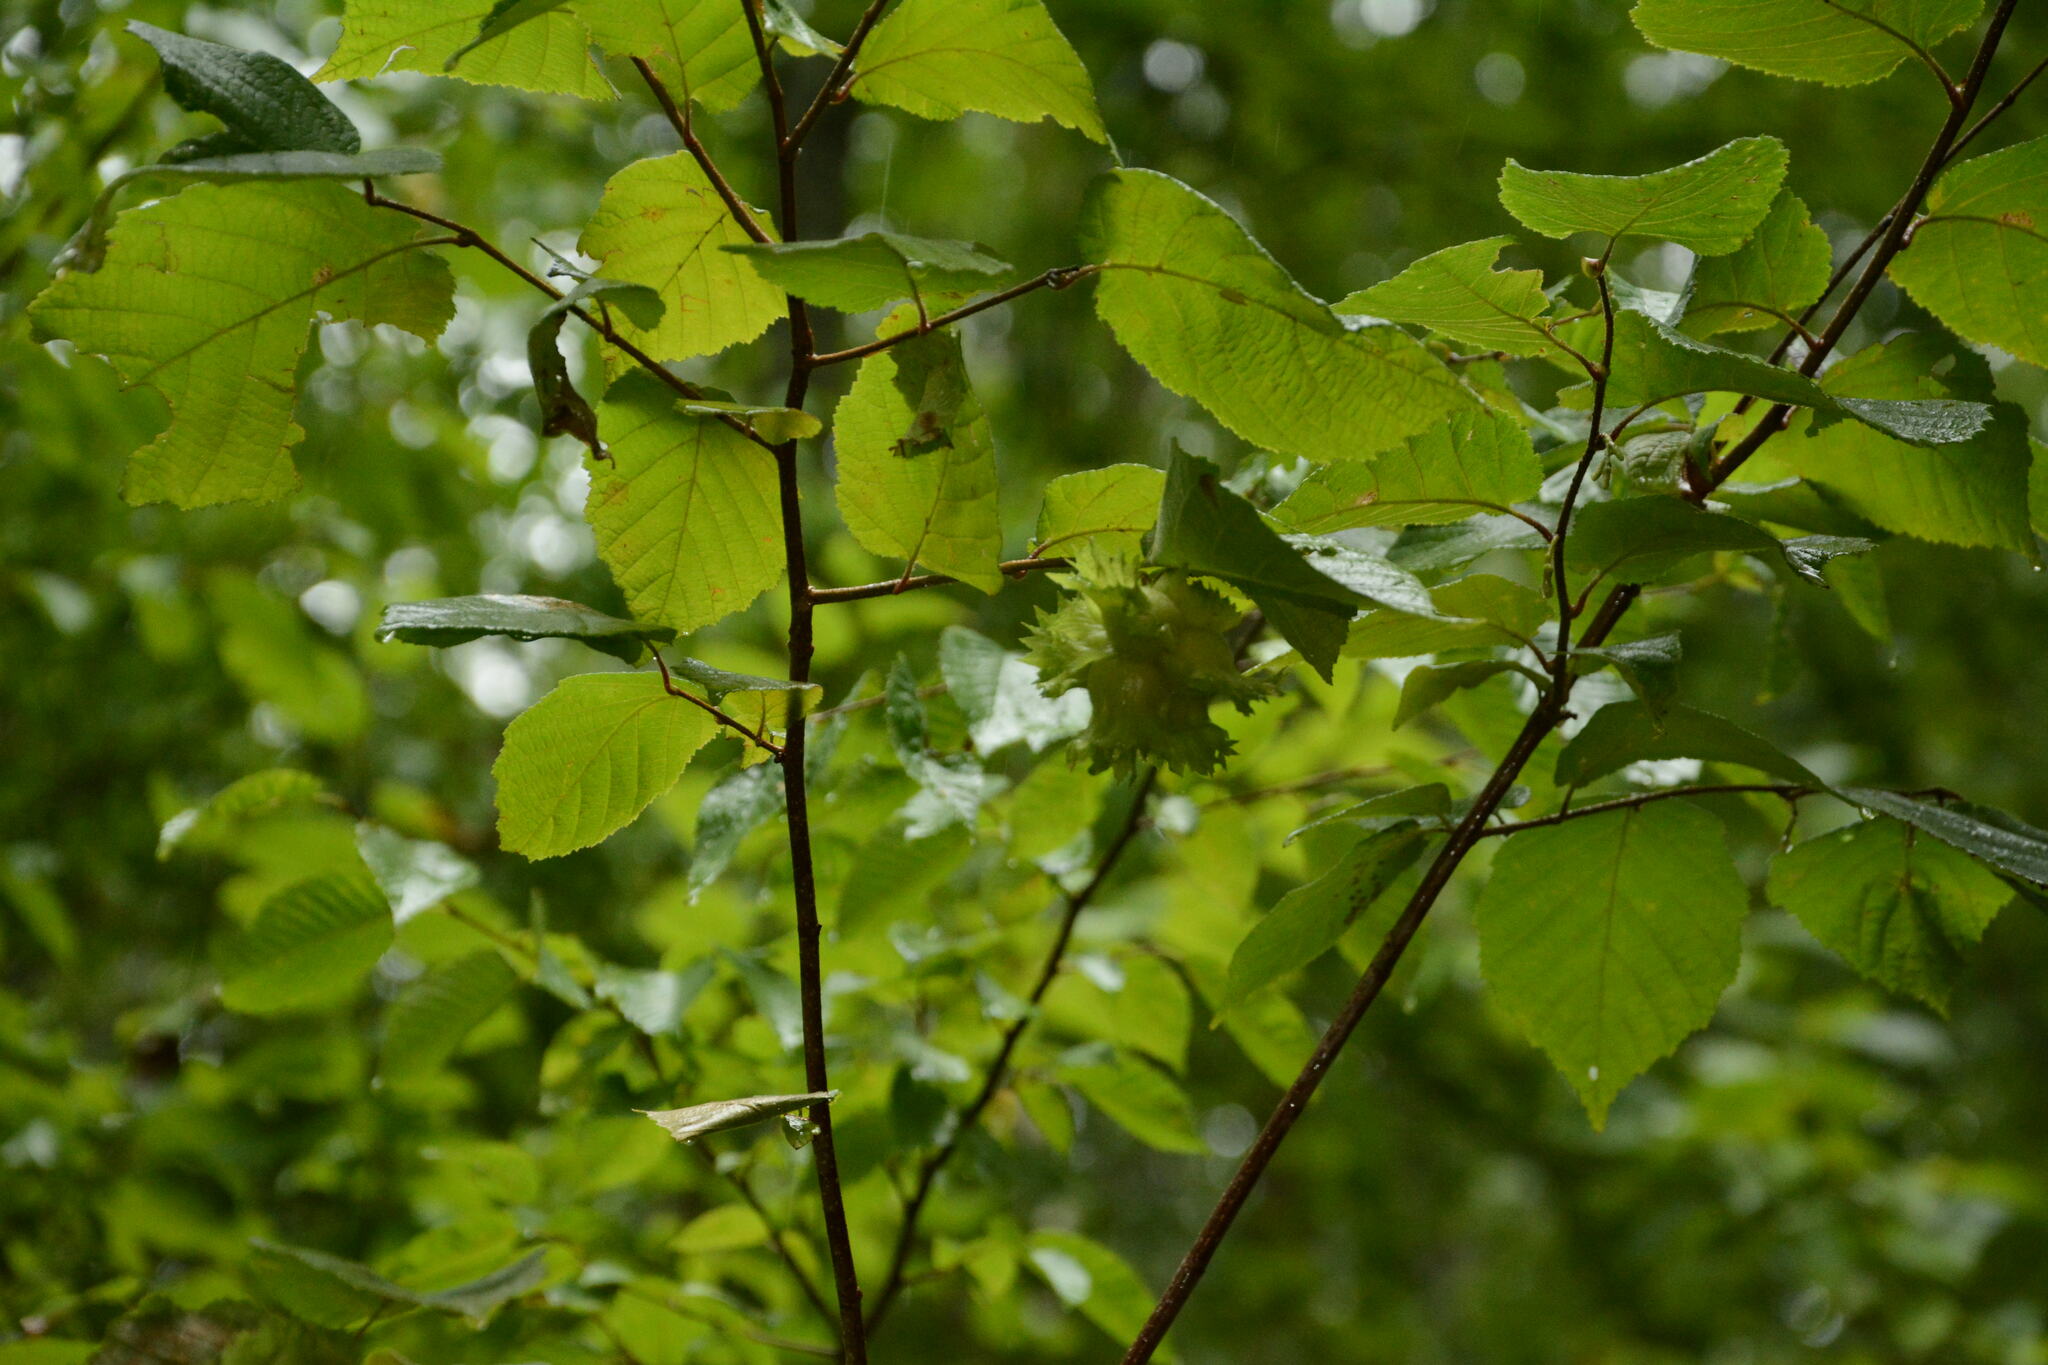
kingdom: Plantae
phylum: Tracheophyta
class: Magnoliopsida
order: Fagales
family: Betulaceae
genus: Corylus
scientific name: Corylus americana
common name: American hazel
